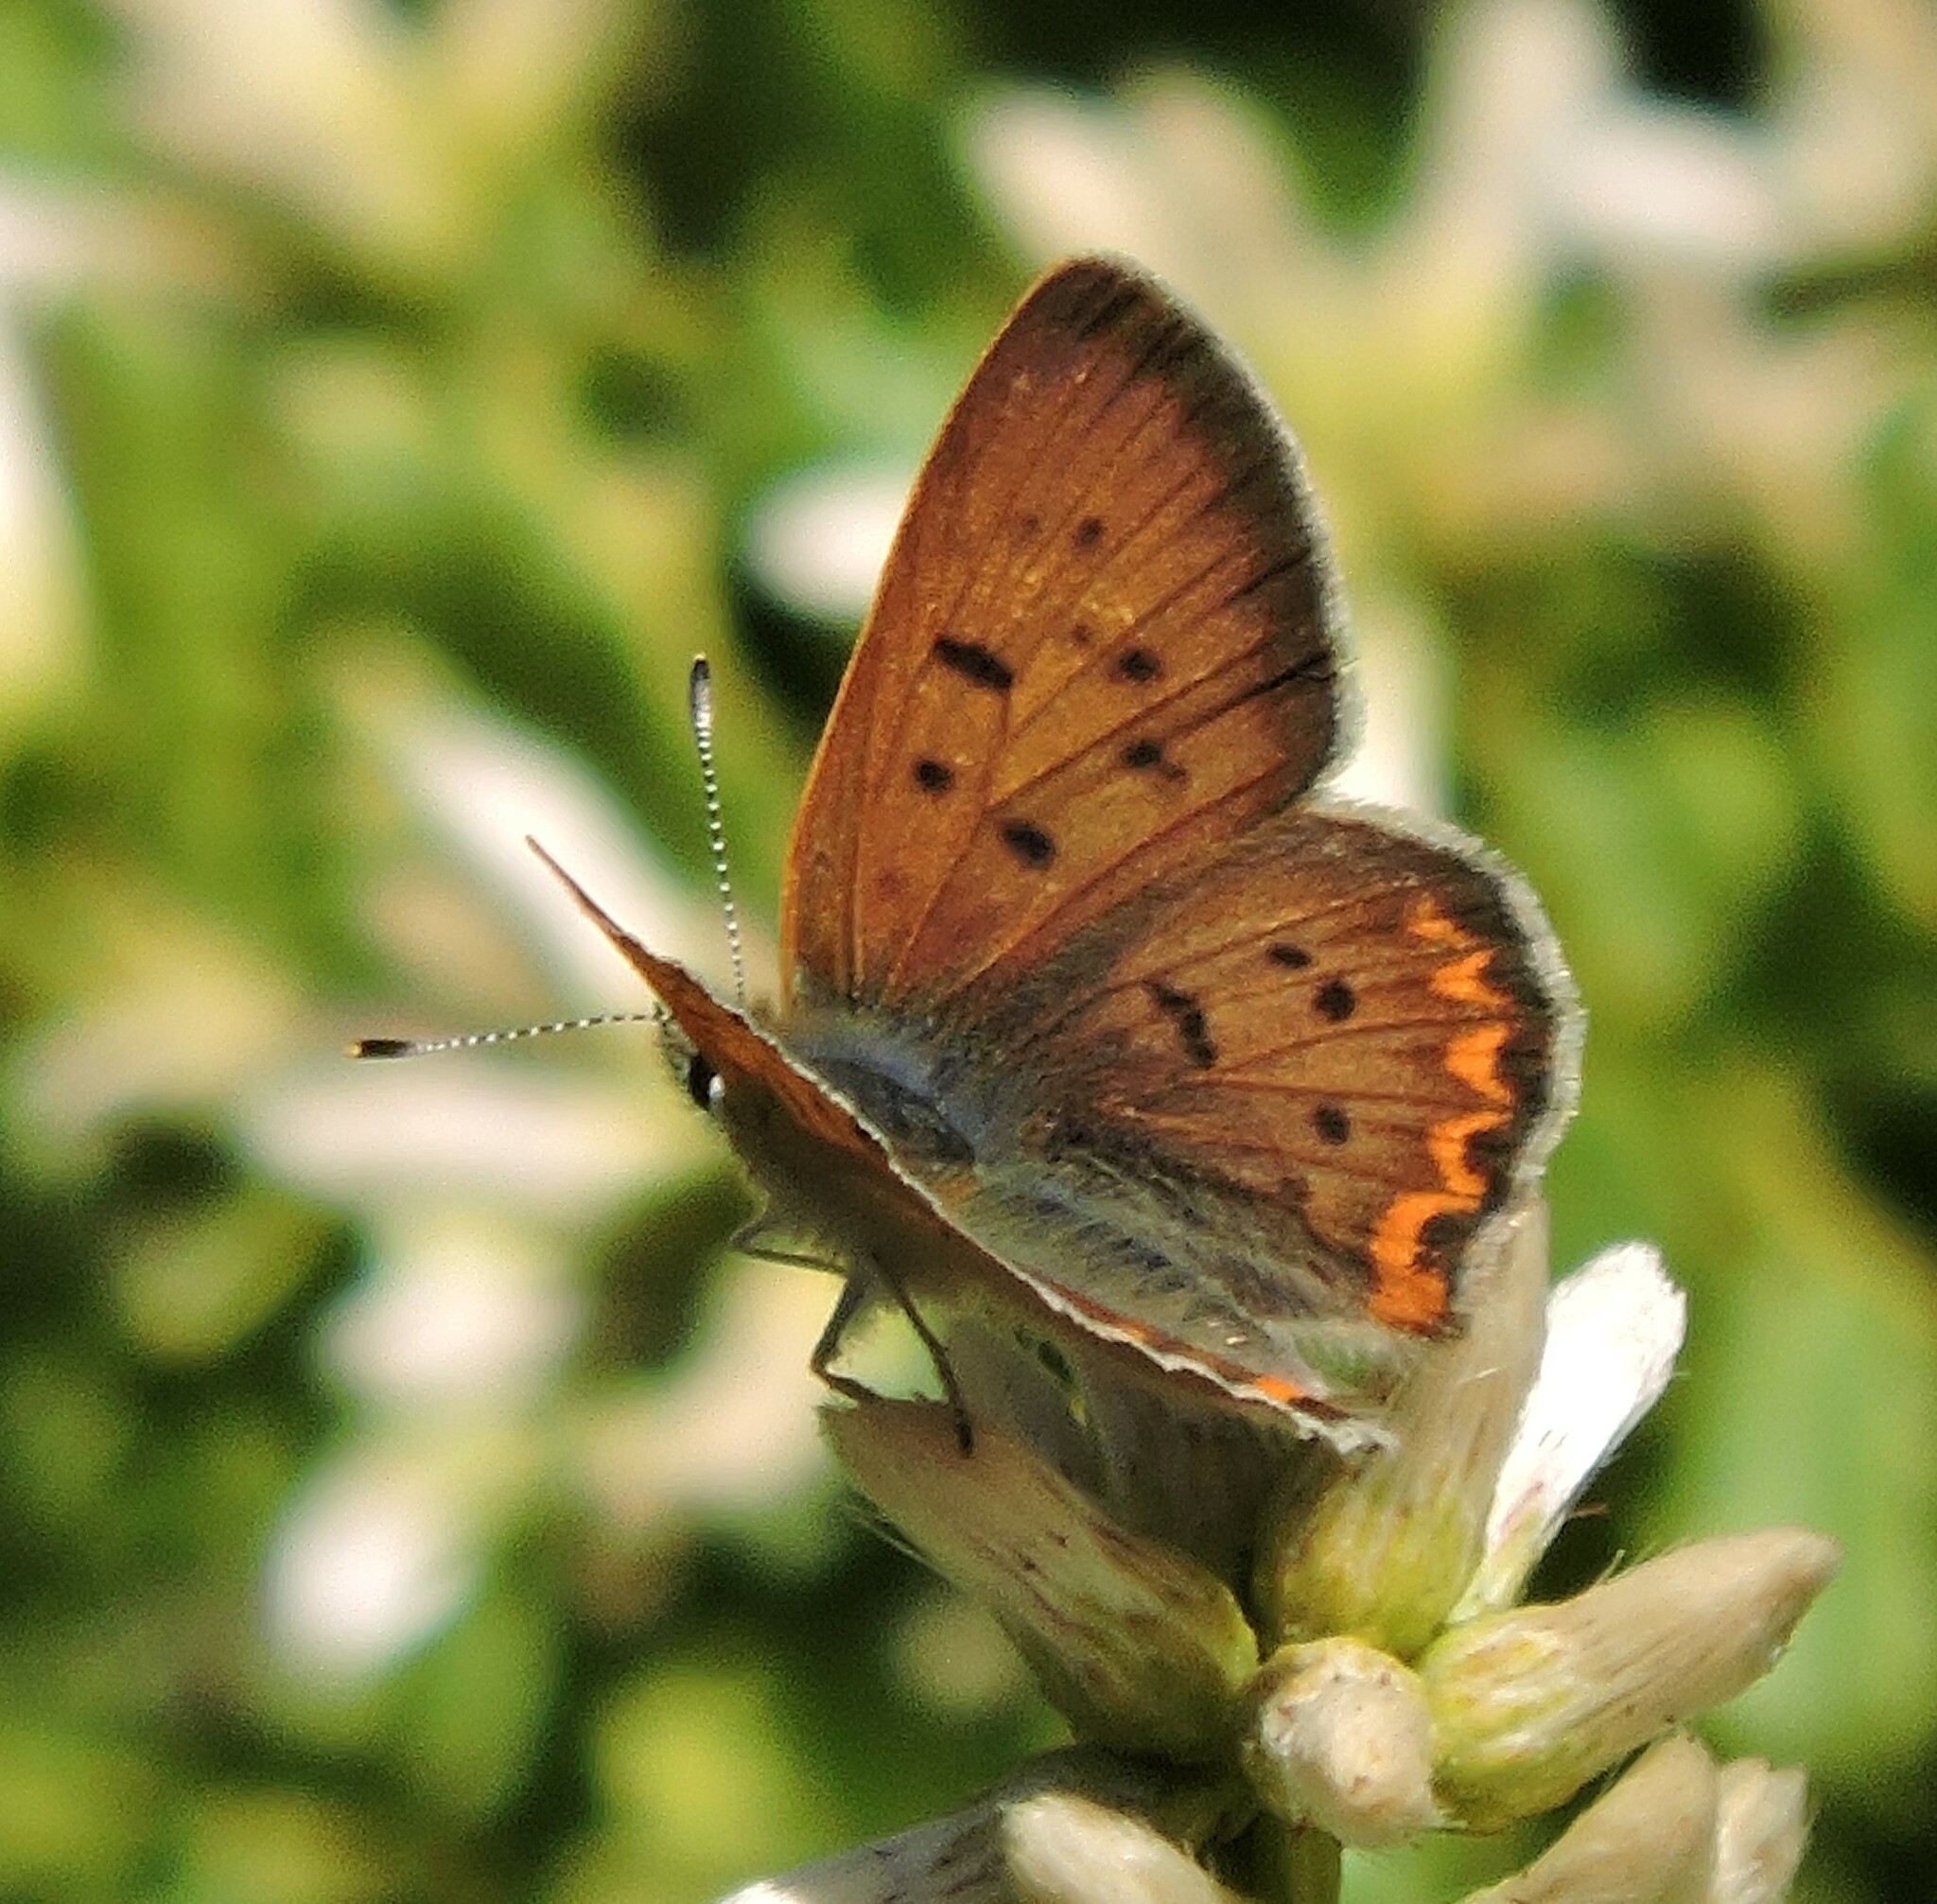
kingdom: Animalia
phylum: Arthropoda
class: Insecta
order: Lepidoptera
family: Lycaenidae
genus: Tharsalea
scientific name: Tharsalea helloides
